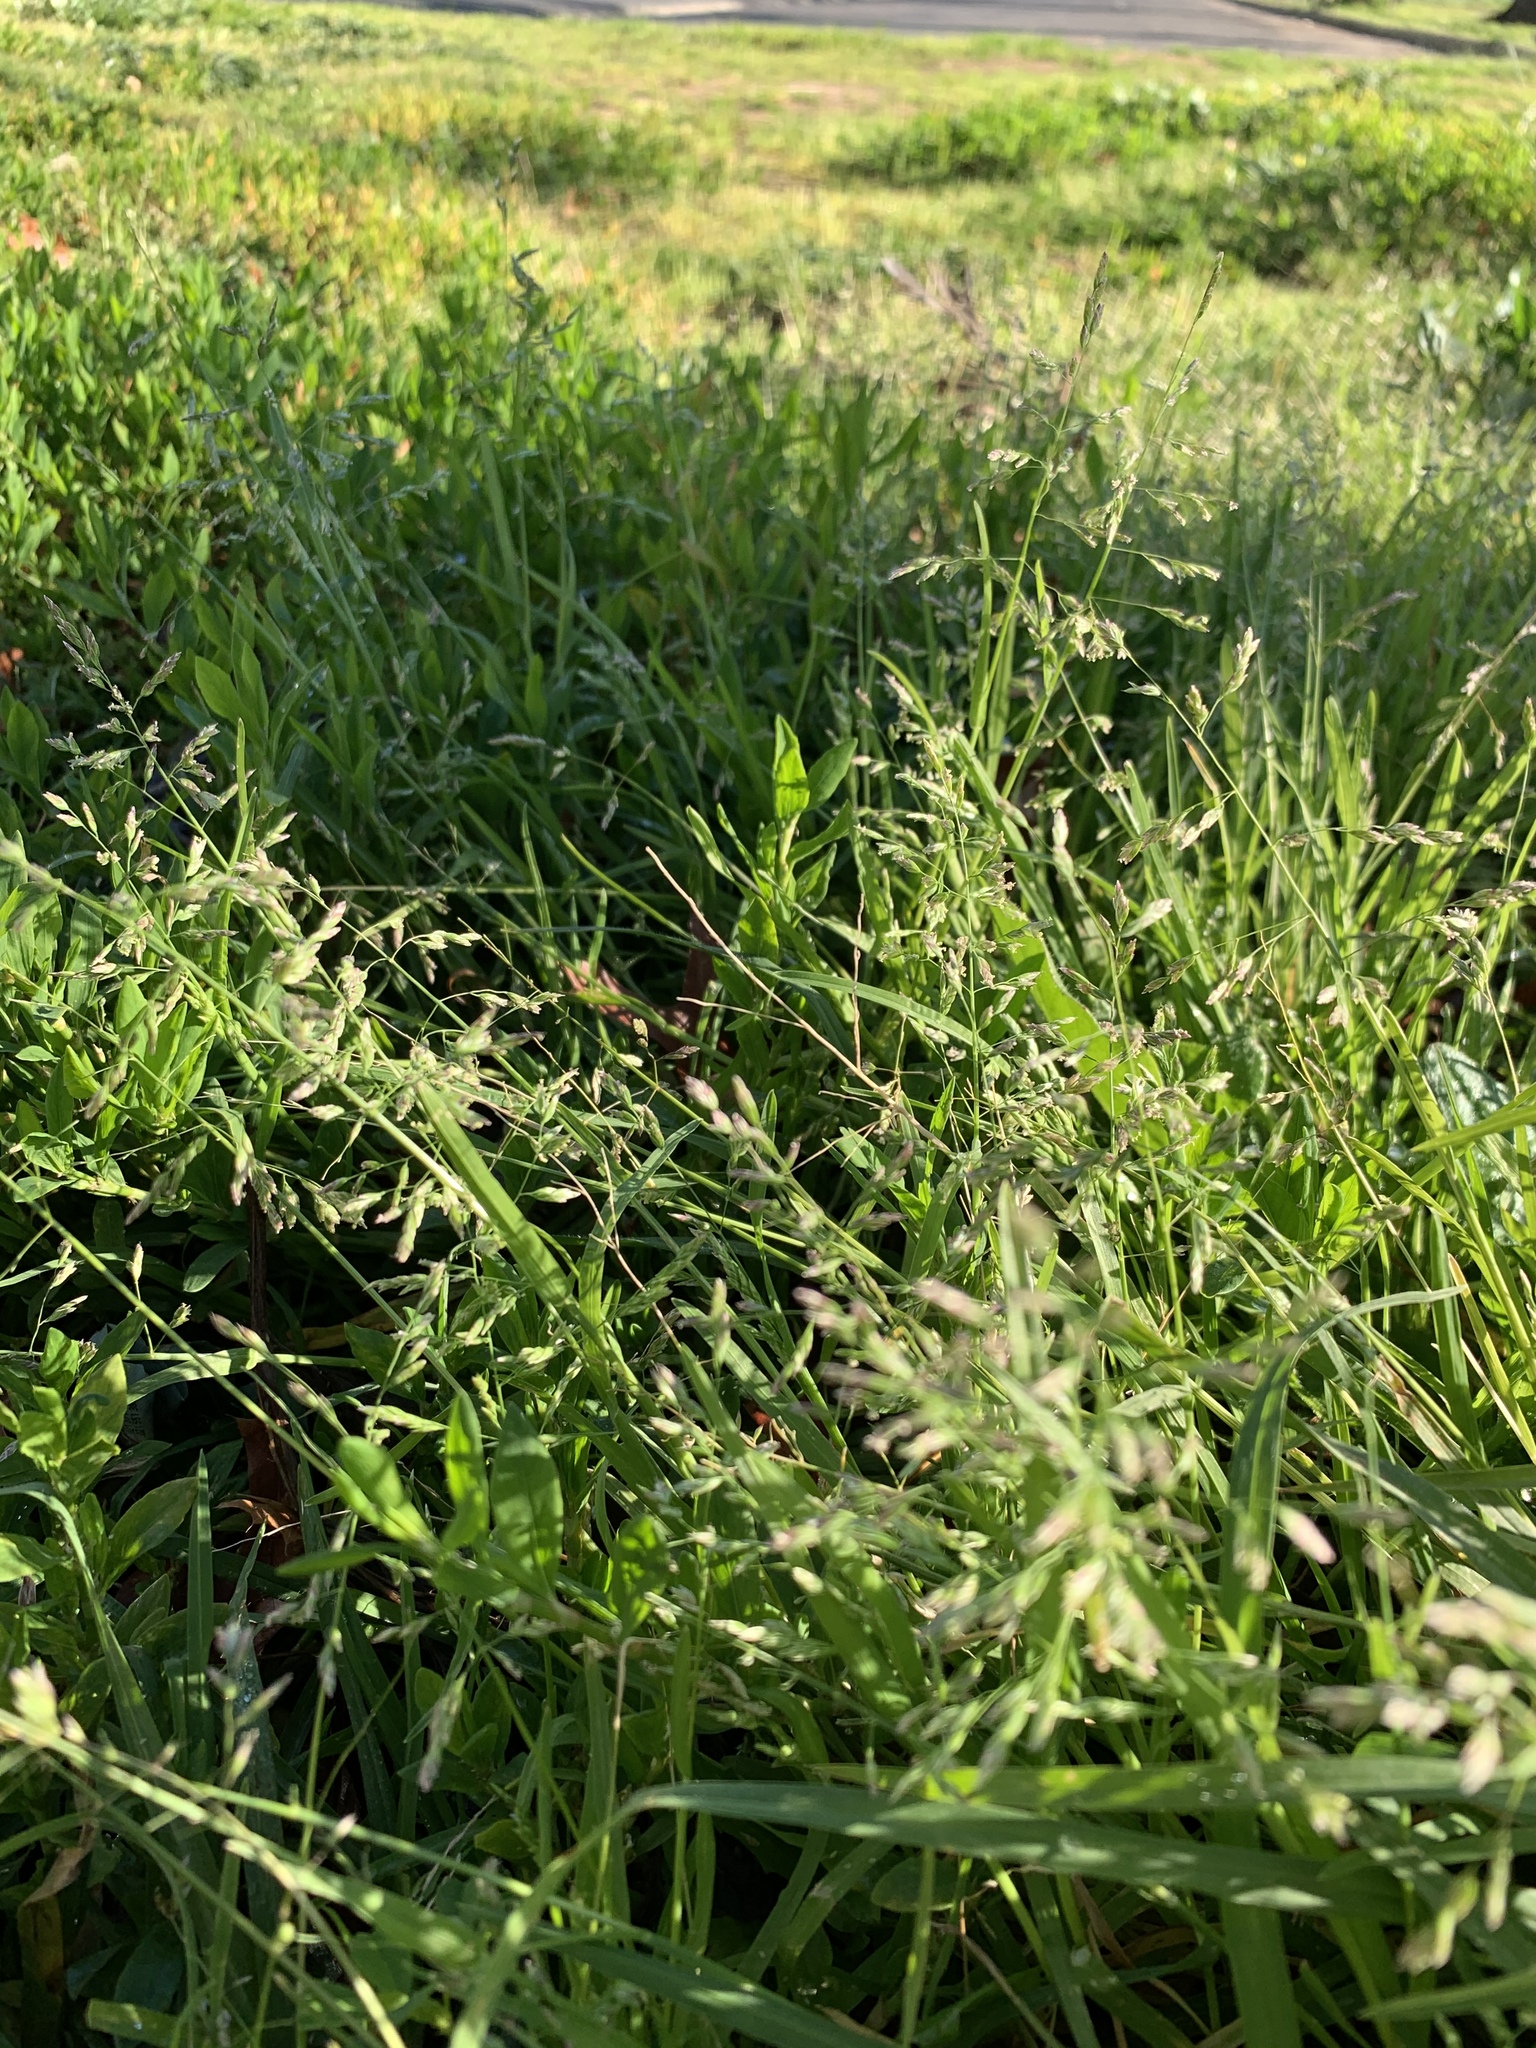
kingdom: Plantae
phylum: Tracheophyta
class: Liliopsida
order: Poales
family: Poaceae
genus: Poa
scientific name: Poa annua
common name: Annual bluegrass
